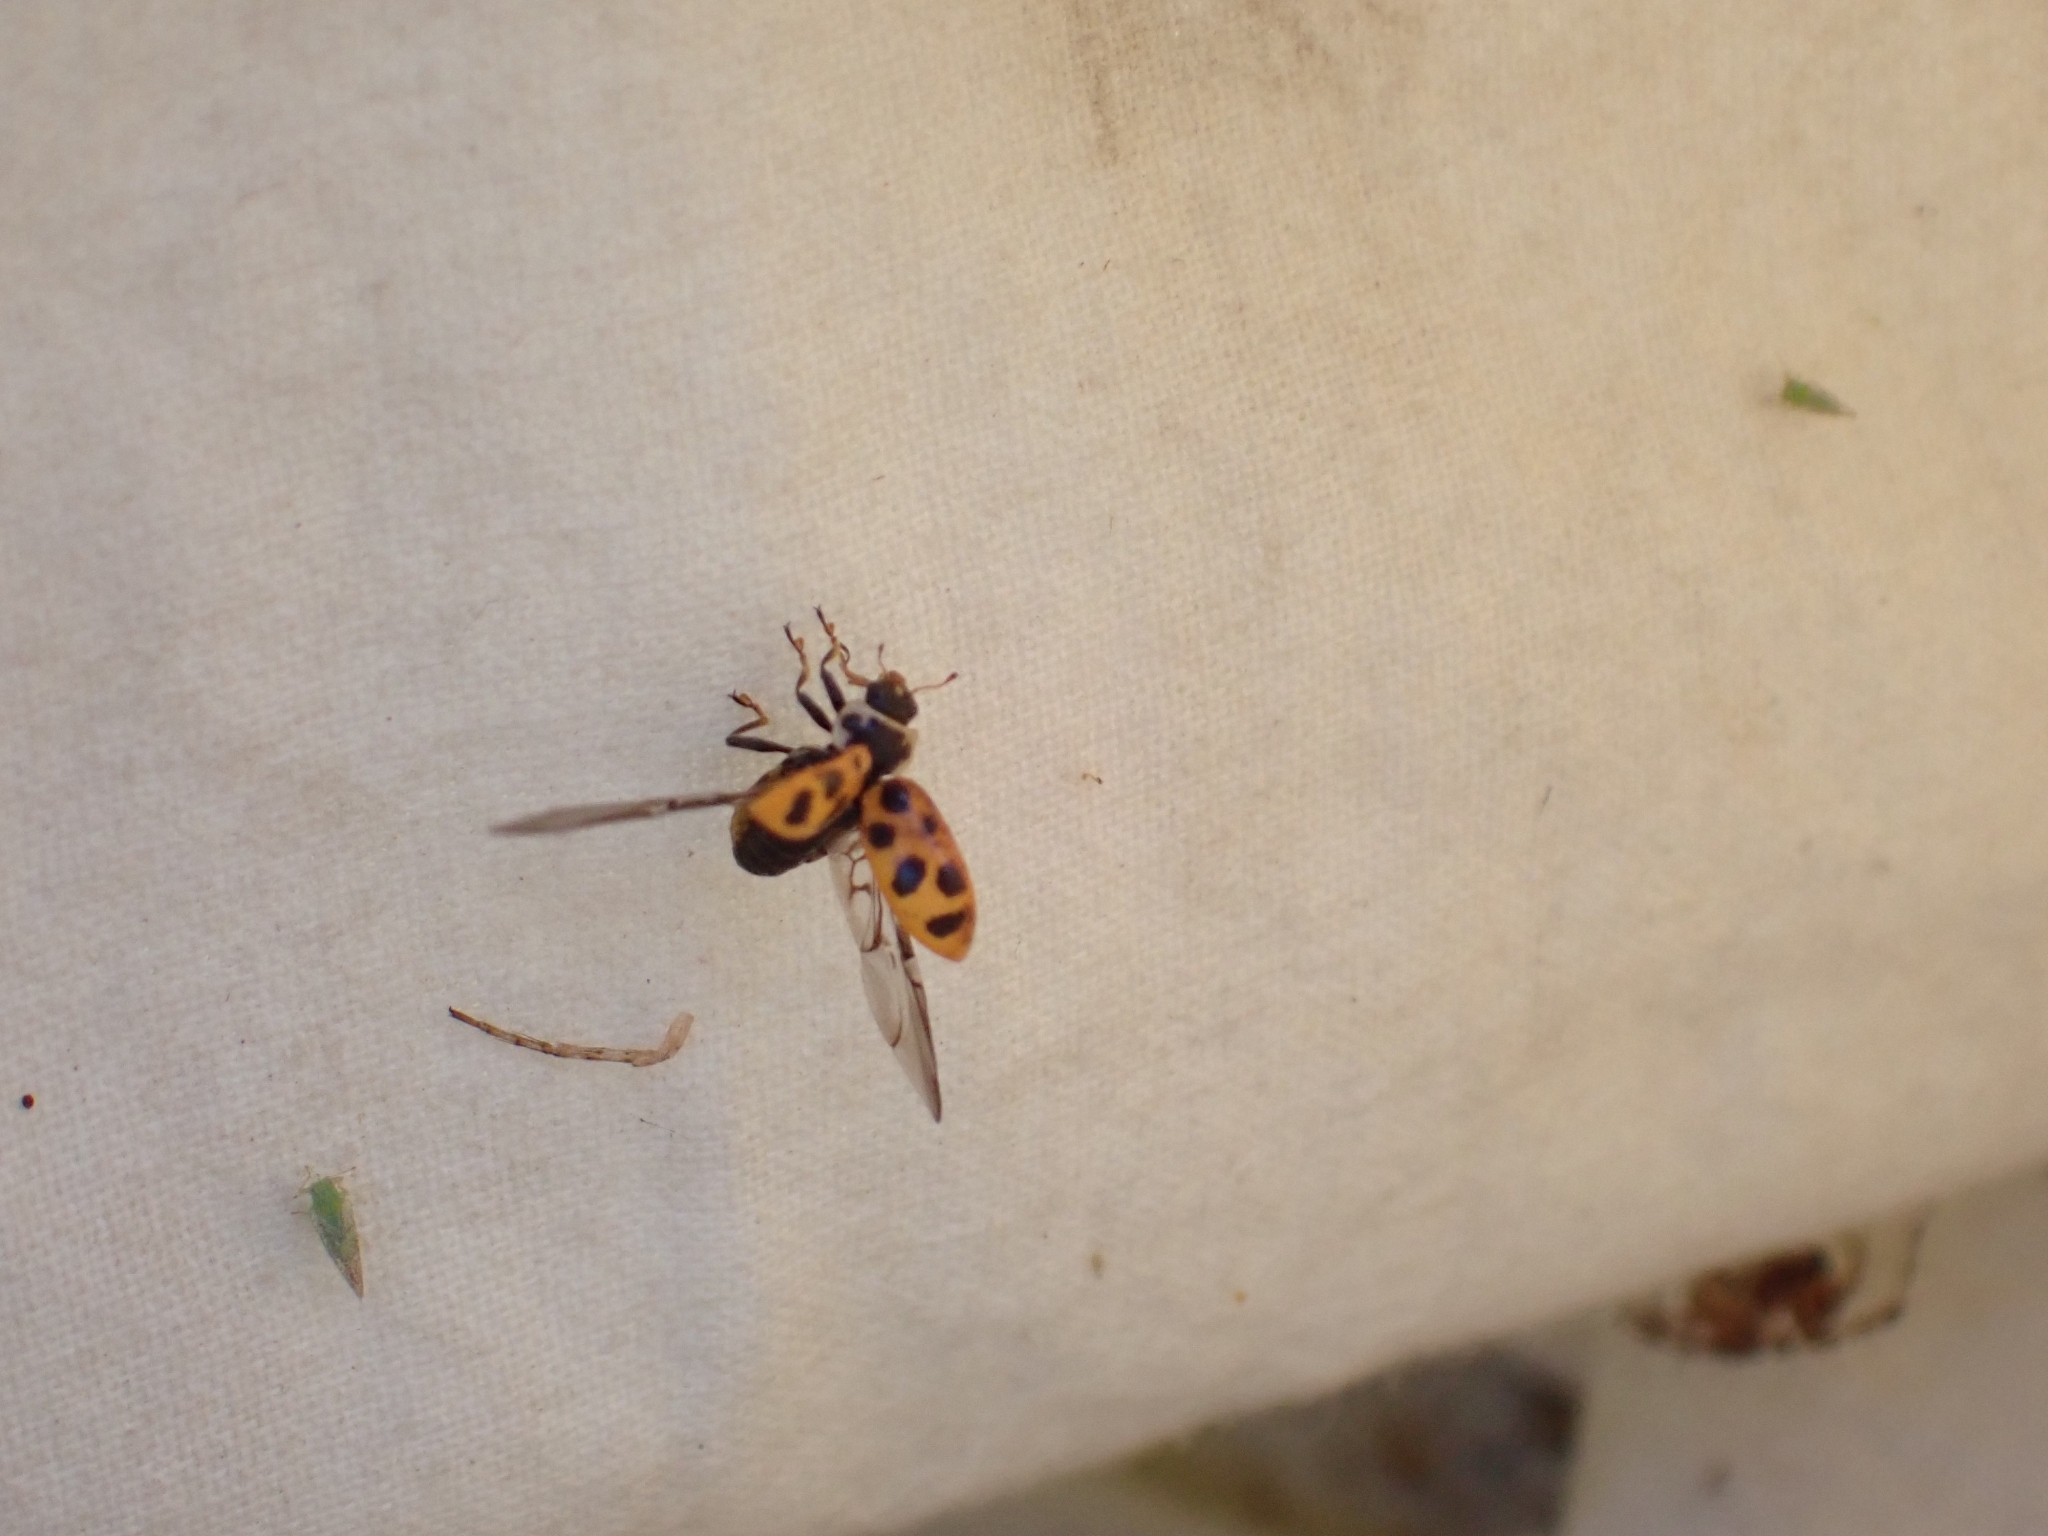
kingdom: Animalia
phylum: Arthropoda
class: Insecta
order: Coleoptera
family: Coccinellidae
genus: Hippodamia
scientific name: Hippodamia tredecimpunctata
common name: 13-spot ladybird
